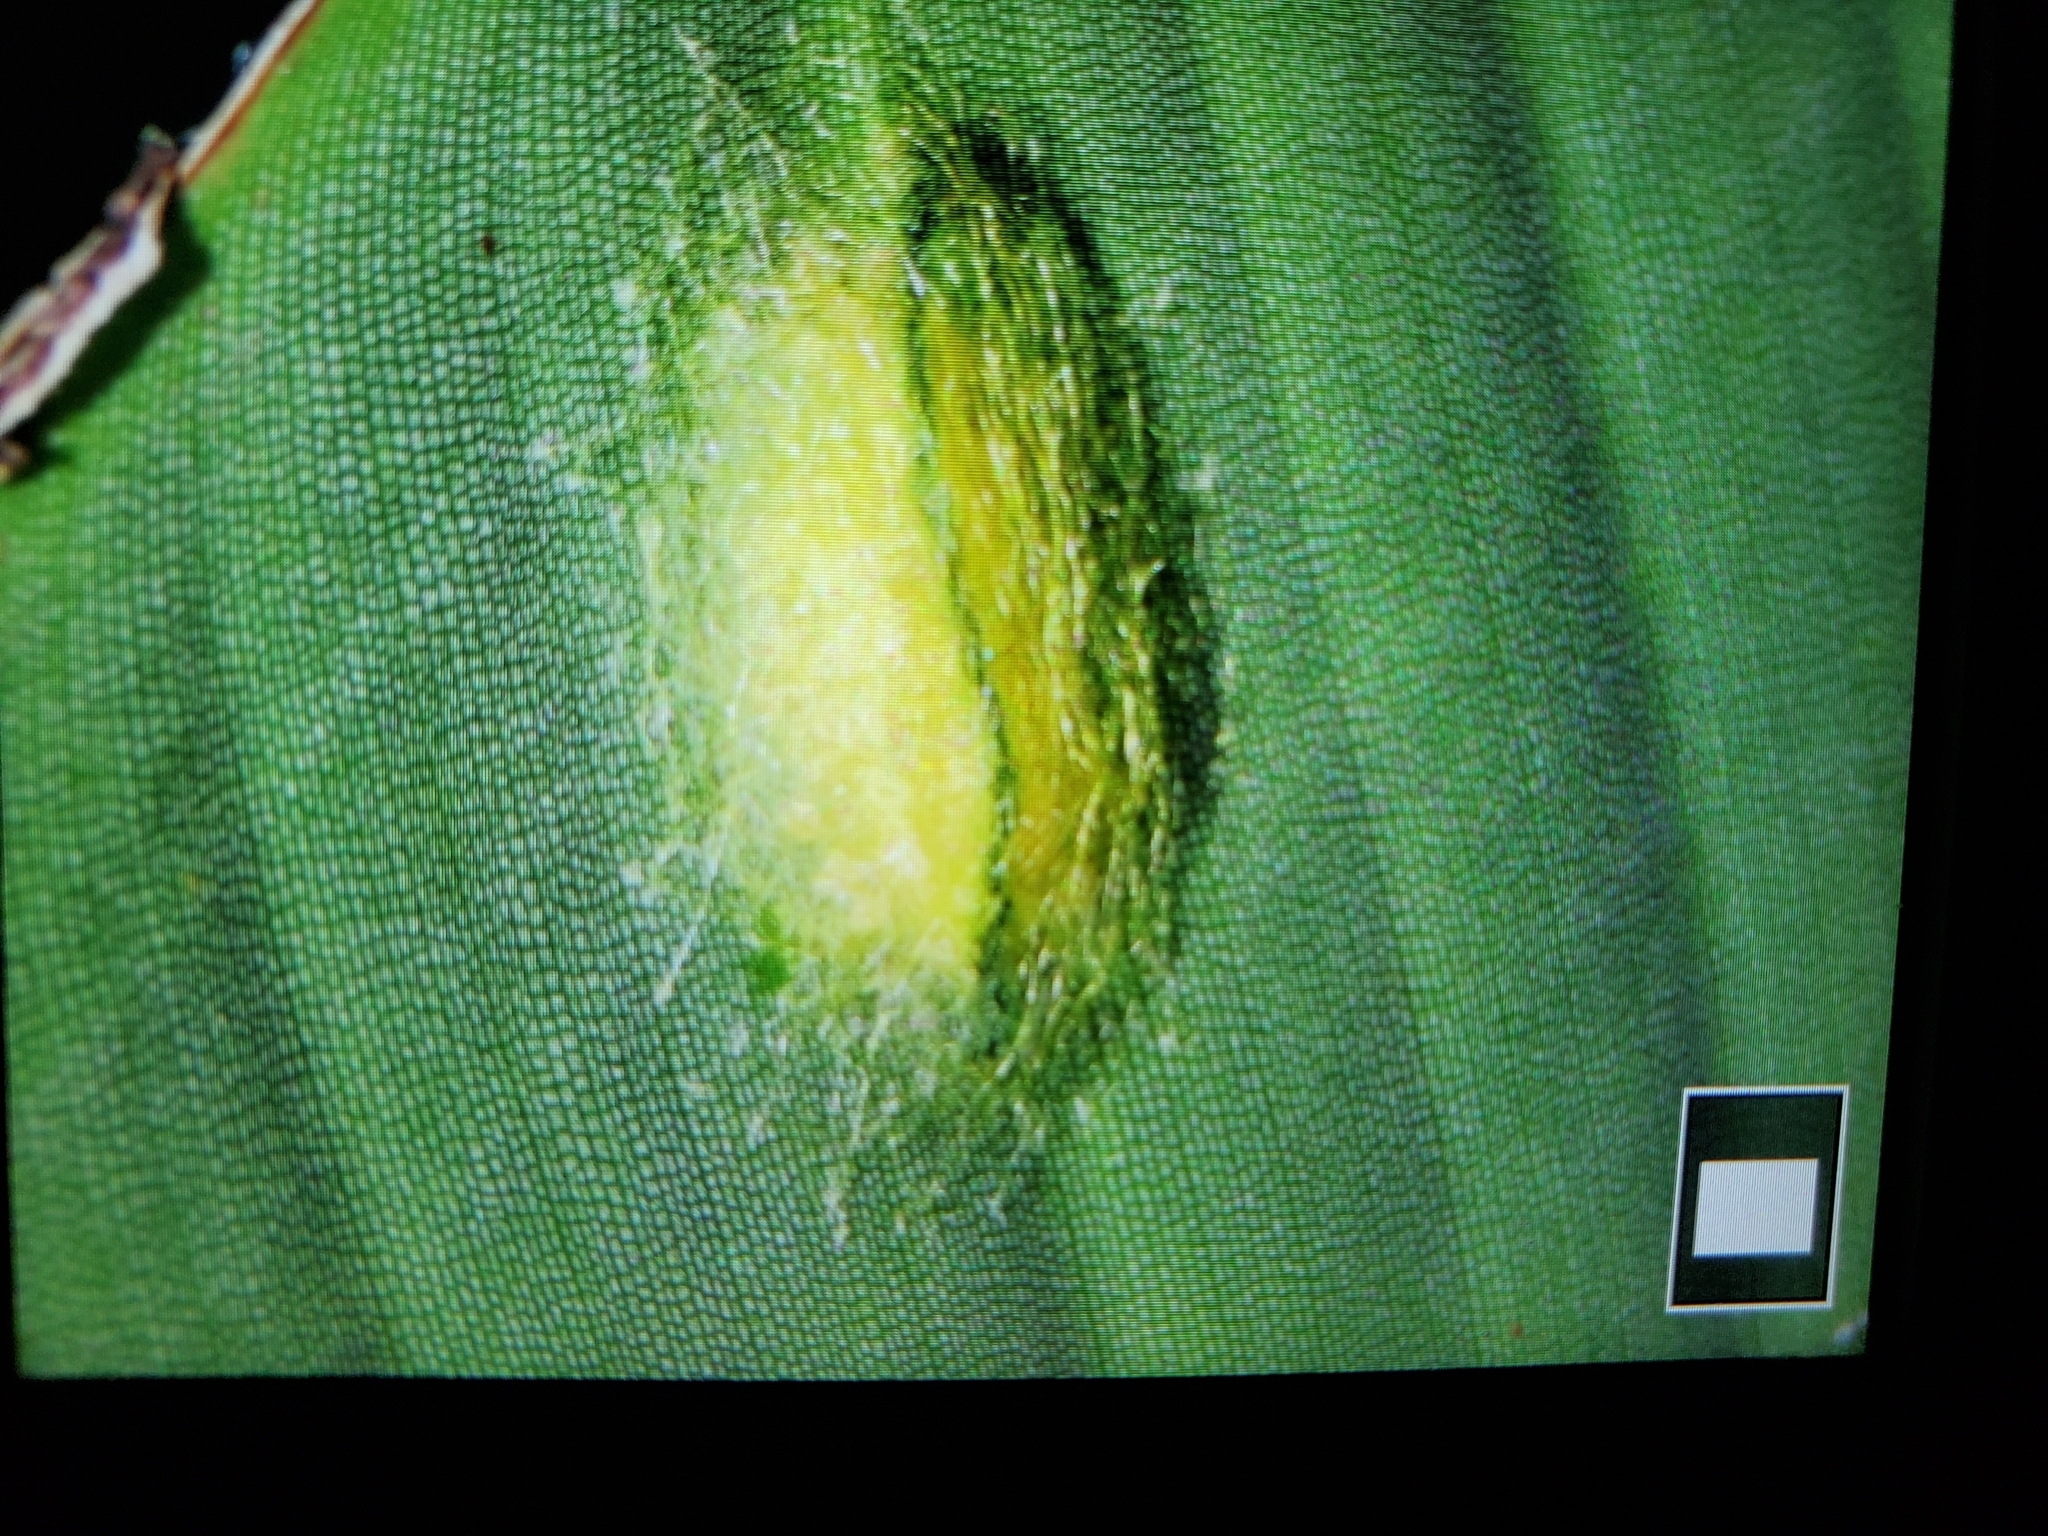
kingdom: Animalia
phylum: Arthropoda
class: Arachnida
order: Araneae
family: Araneidae
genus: Gasteracantha
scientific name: Gasteracantha cancriformis
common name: Orb weavers
